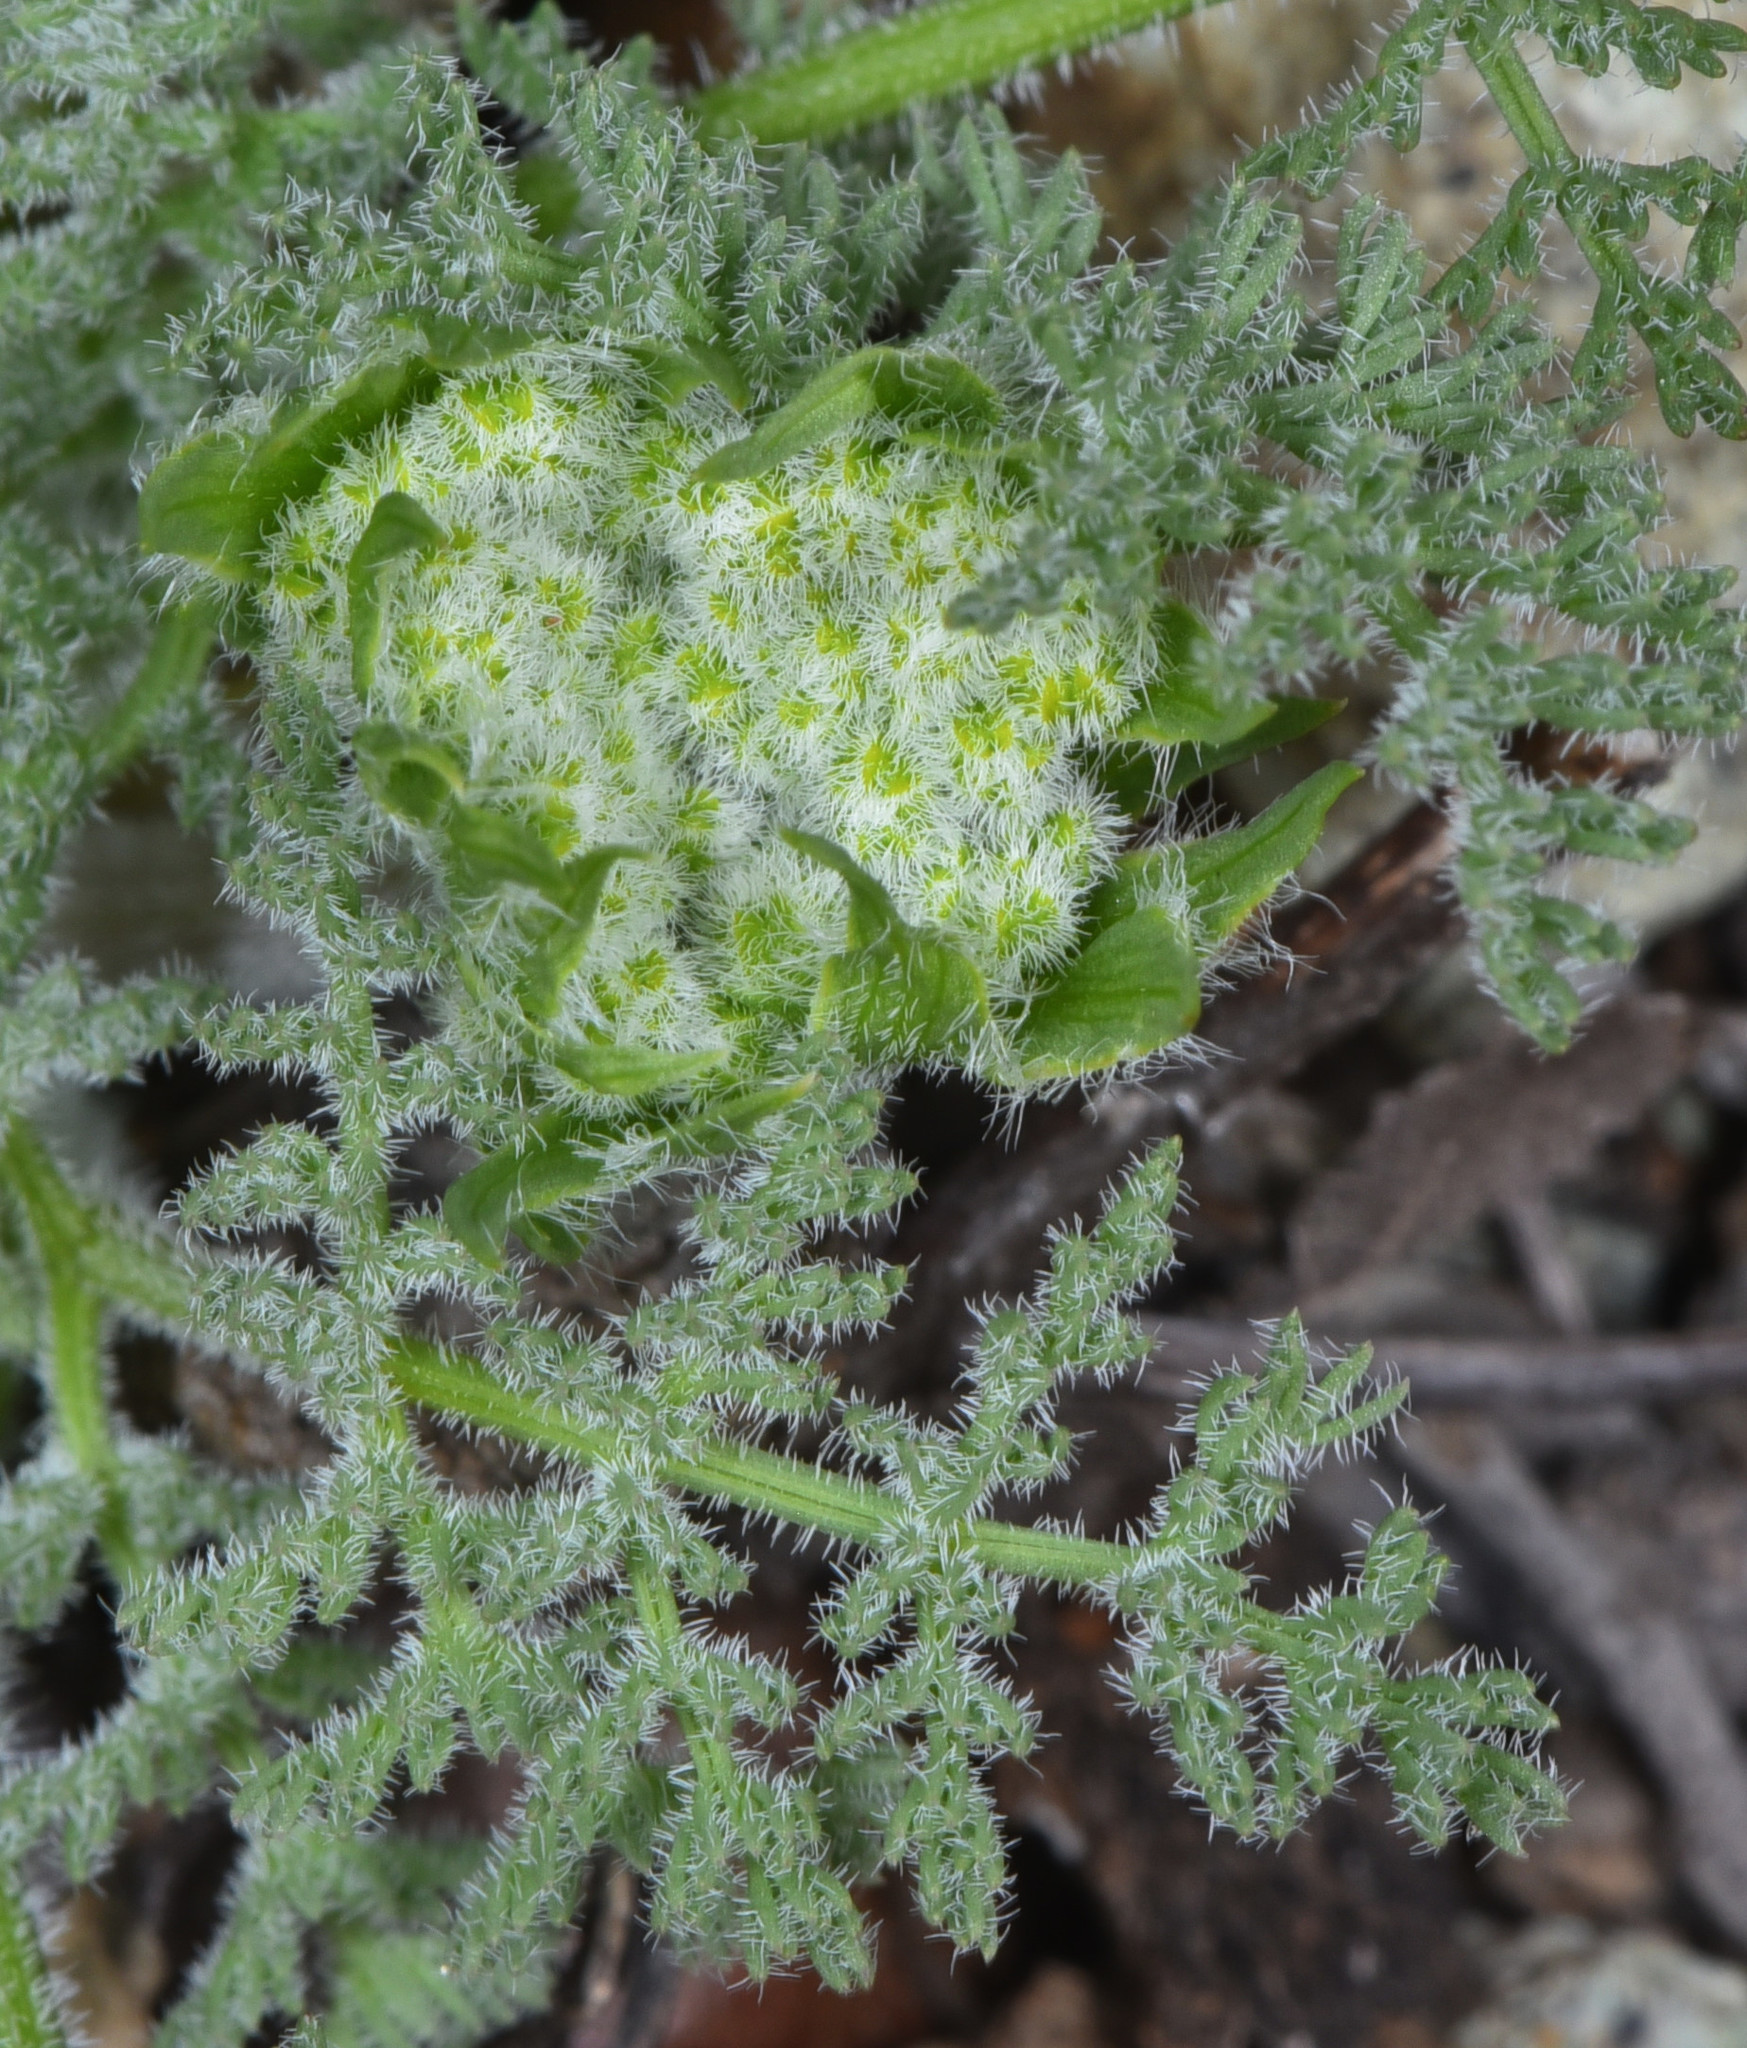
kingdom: Plantae
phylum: Tracheophyta
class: Magnoliopsida
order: Apiales
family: Apiaceae
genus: Lomatium
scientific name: Lomatium dasycarpum
